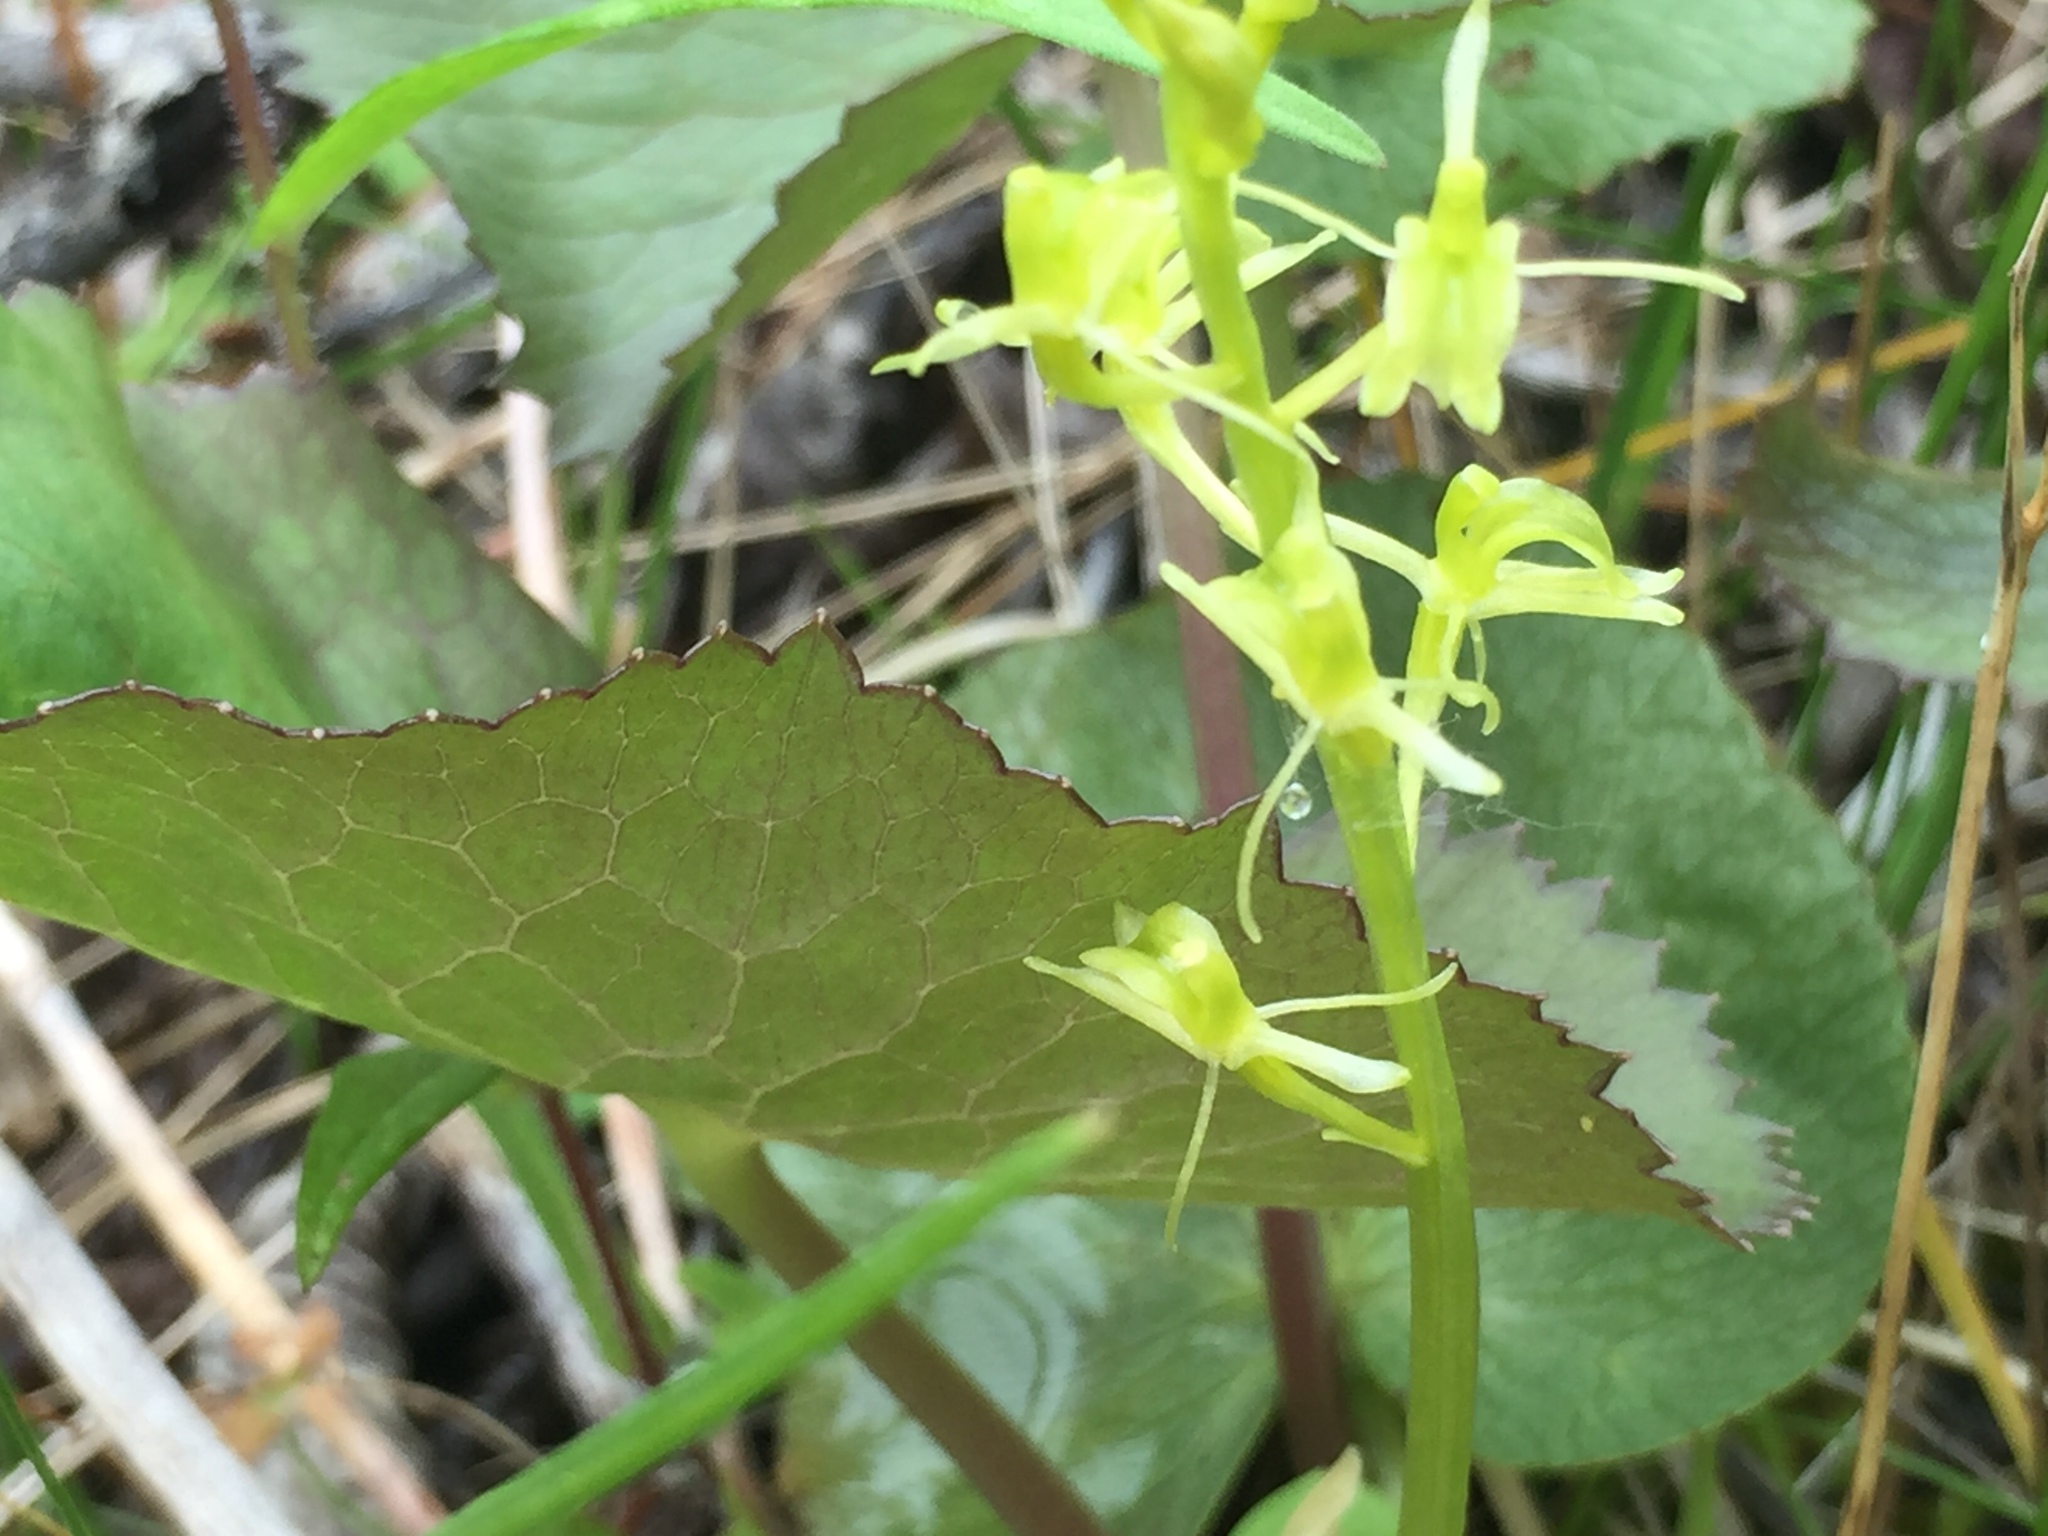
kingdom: Animalia
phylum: Arthropoda
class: Insecta
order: Coleoptera
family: Curculionidae
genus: Liparis
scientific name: Liparis loeselii
